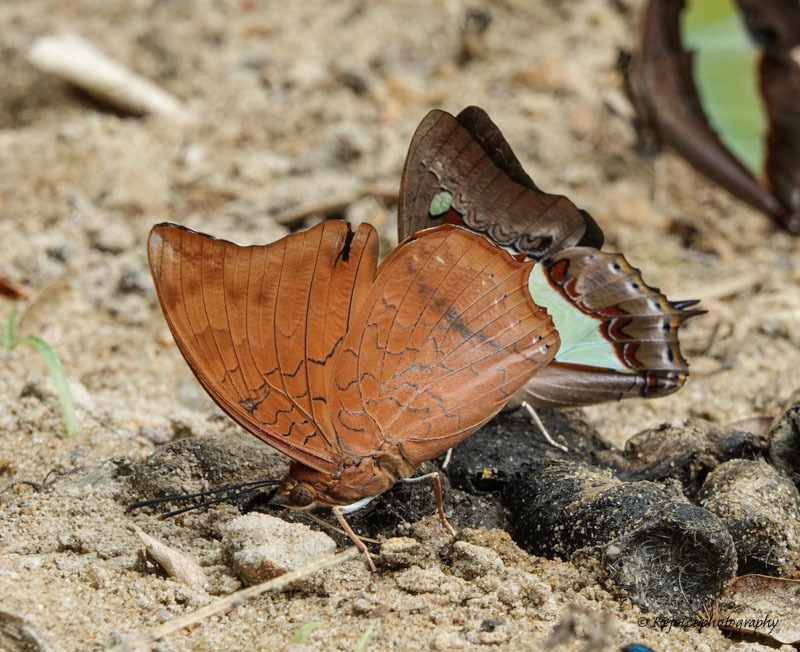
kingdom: Animalia
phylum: Arthropoda
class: Insecta
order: Lepidoptera
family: Nymphalidae
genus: Charaxes
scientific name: Charaxes bernardus
